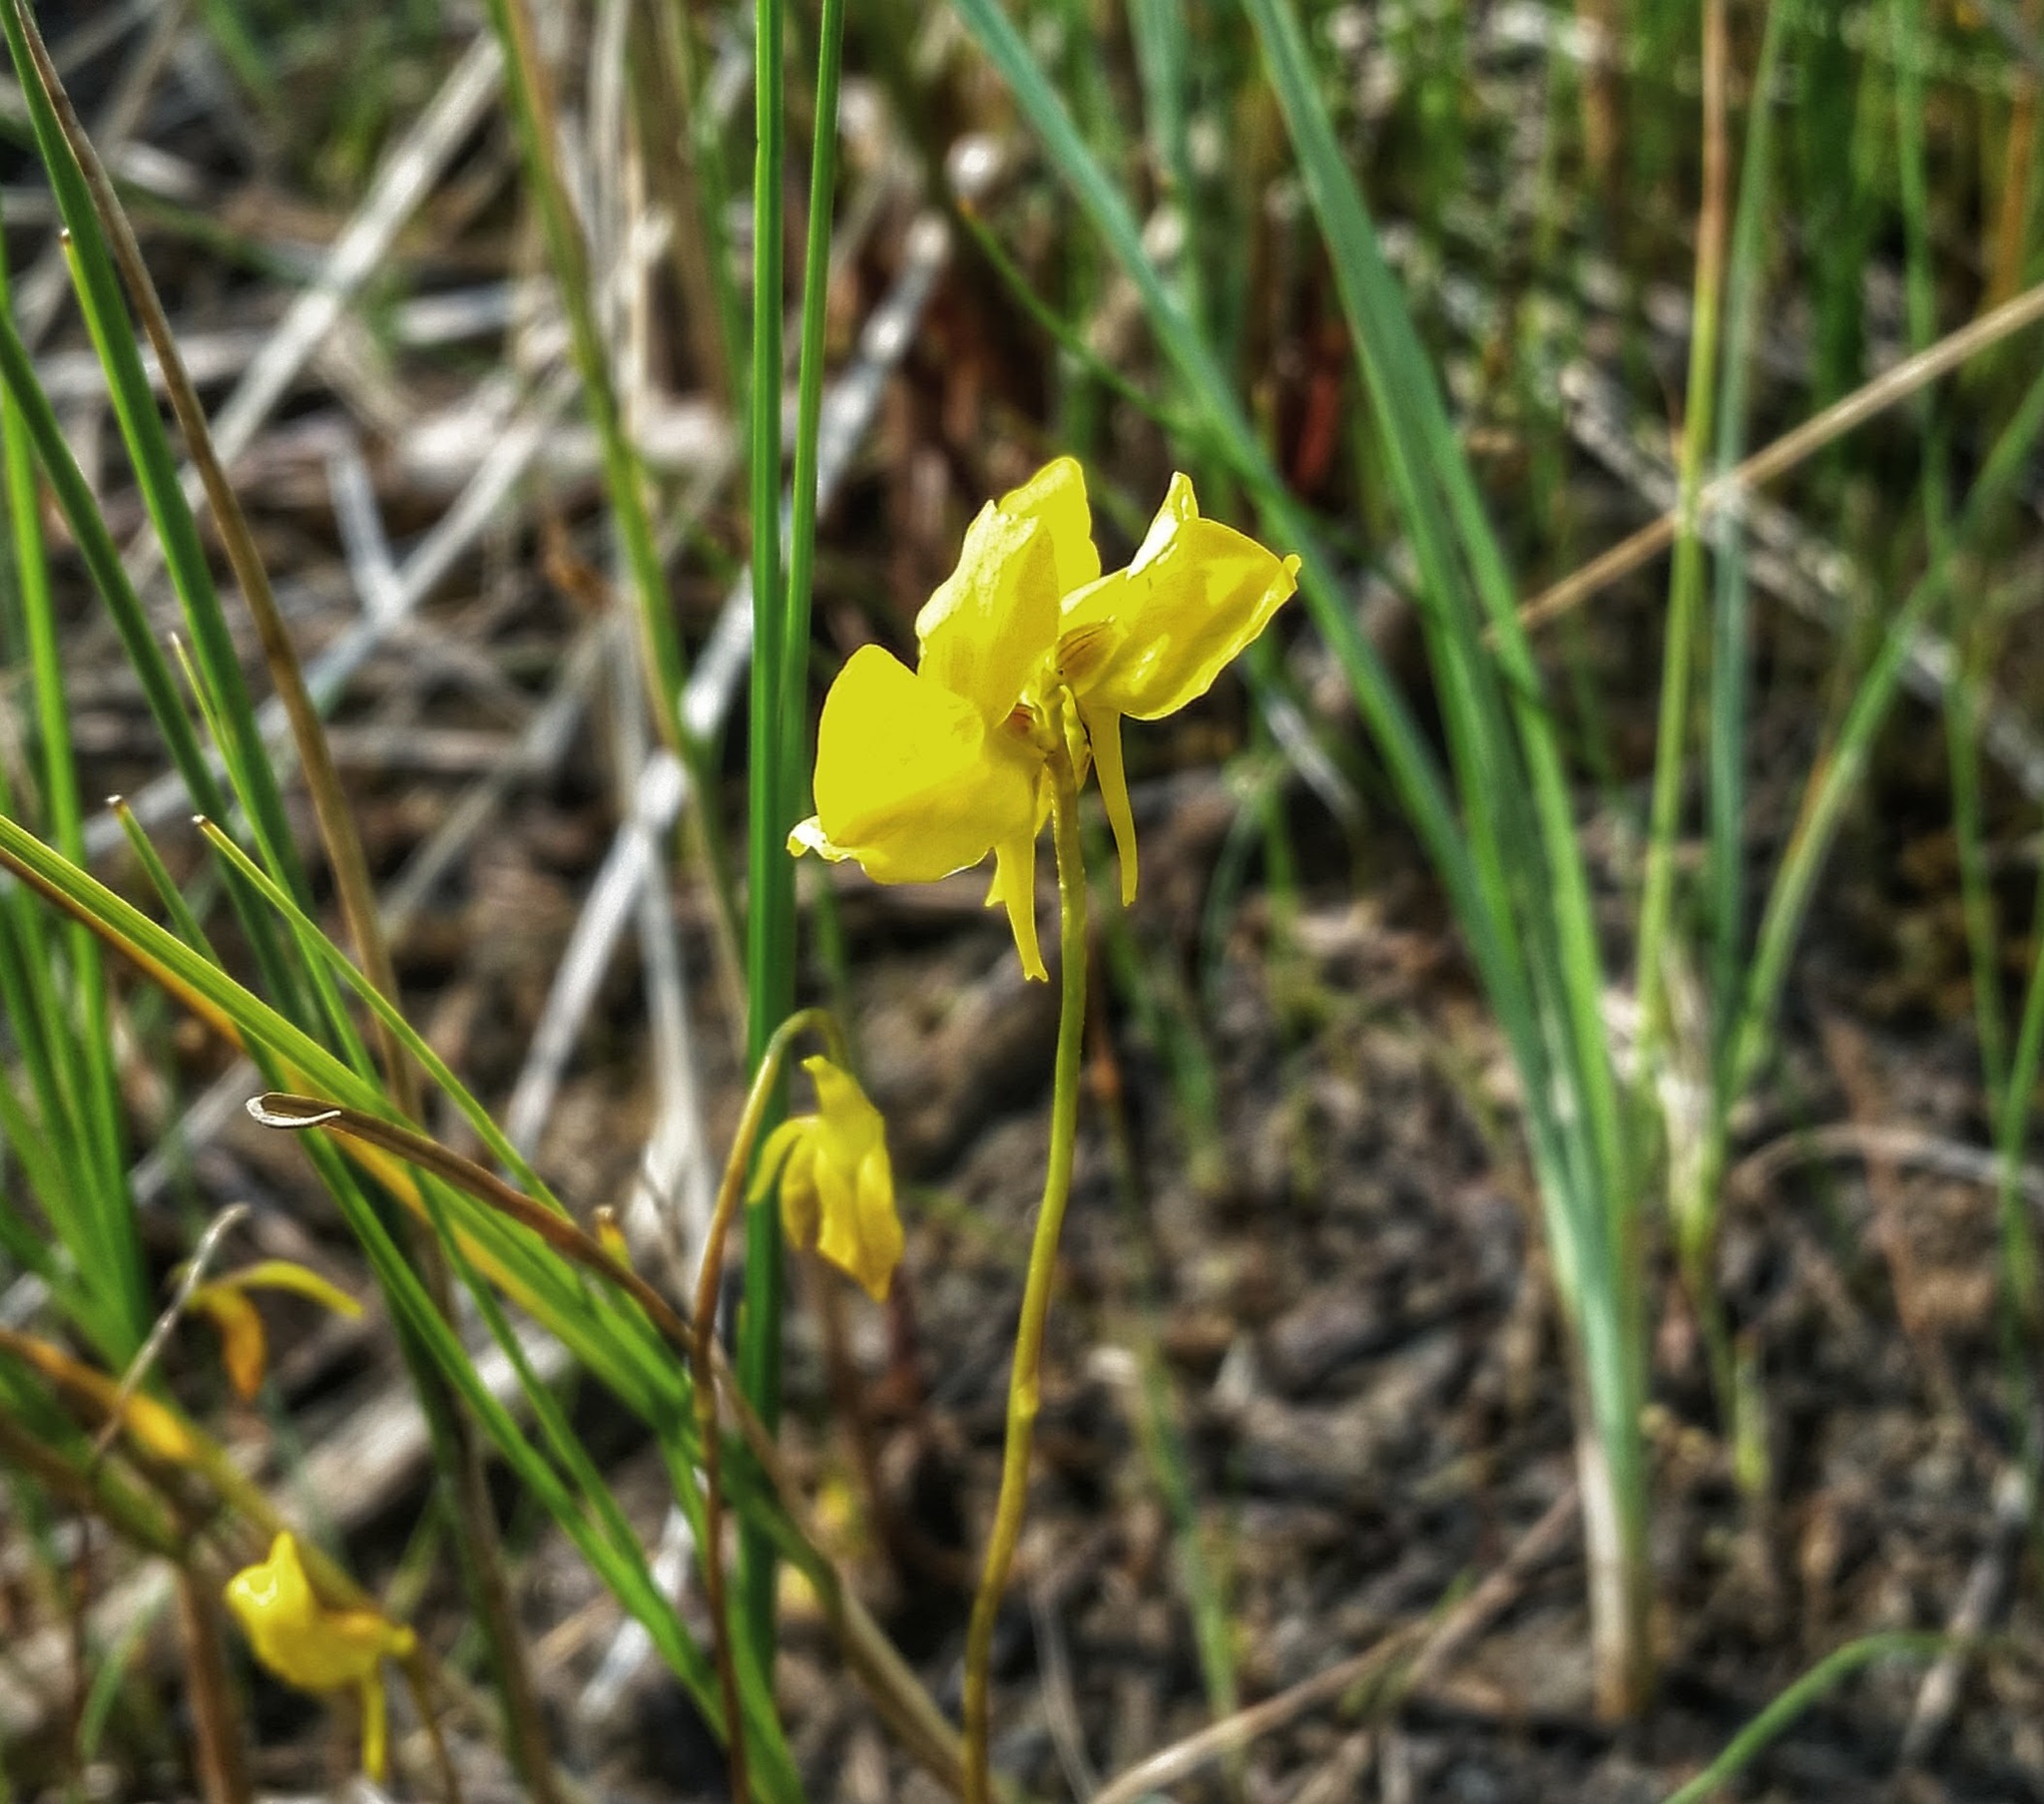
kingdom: Plantae
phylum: Tracheophyta
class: Magnoliopsida
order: Lamiales
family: Lentibulariaceae
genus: Utricularia
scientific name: Utricularia cornuta
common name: Horned bladderwort
